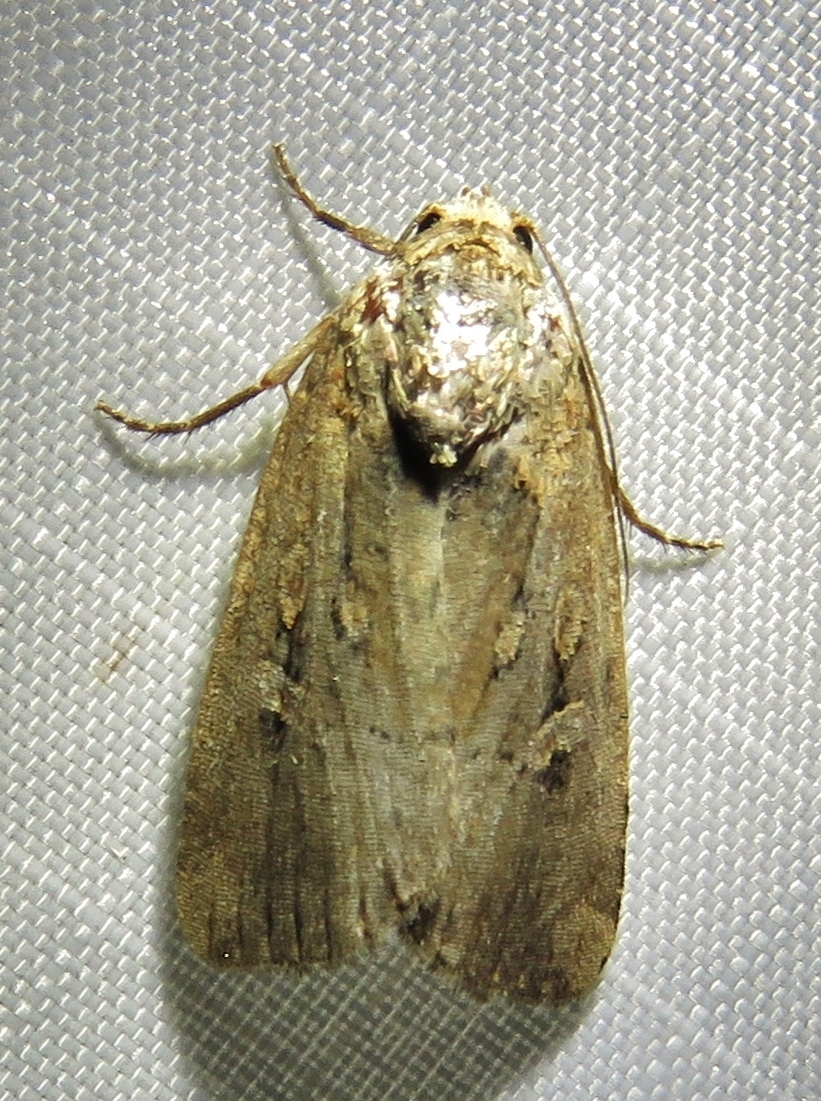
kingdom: Animalia
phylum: Arthropoda
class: Insecta
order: Lepidoptera
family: Noctuidae
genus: Elaphria
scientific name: Elaphria chalcedonia
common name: Chalcedony midget
